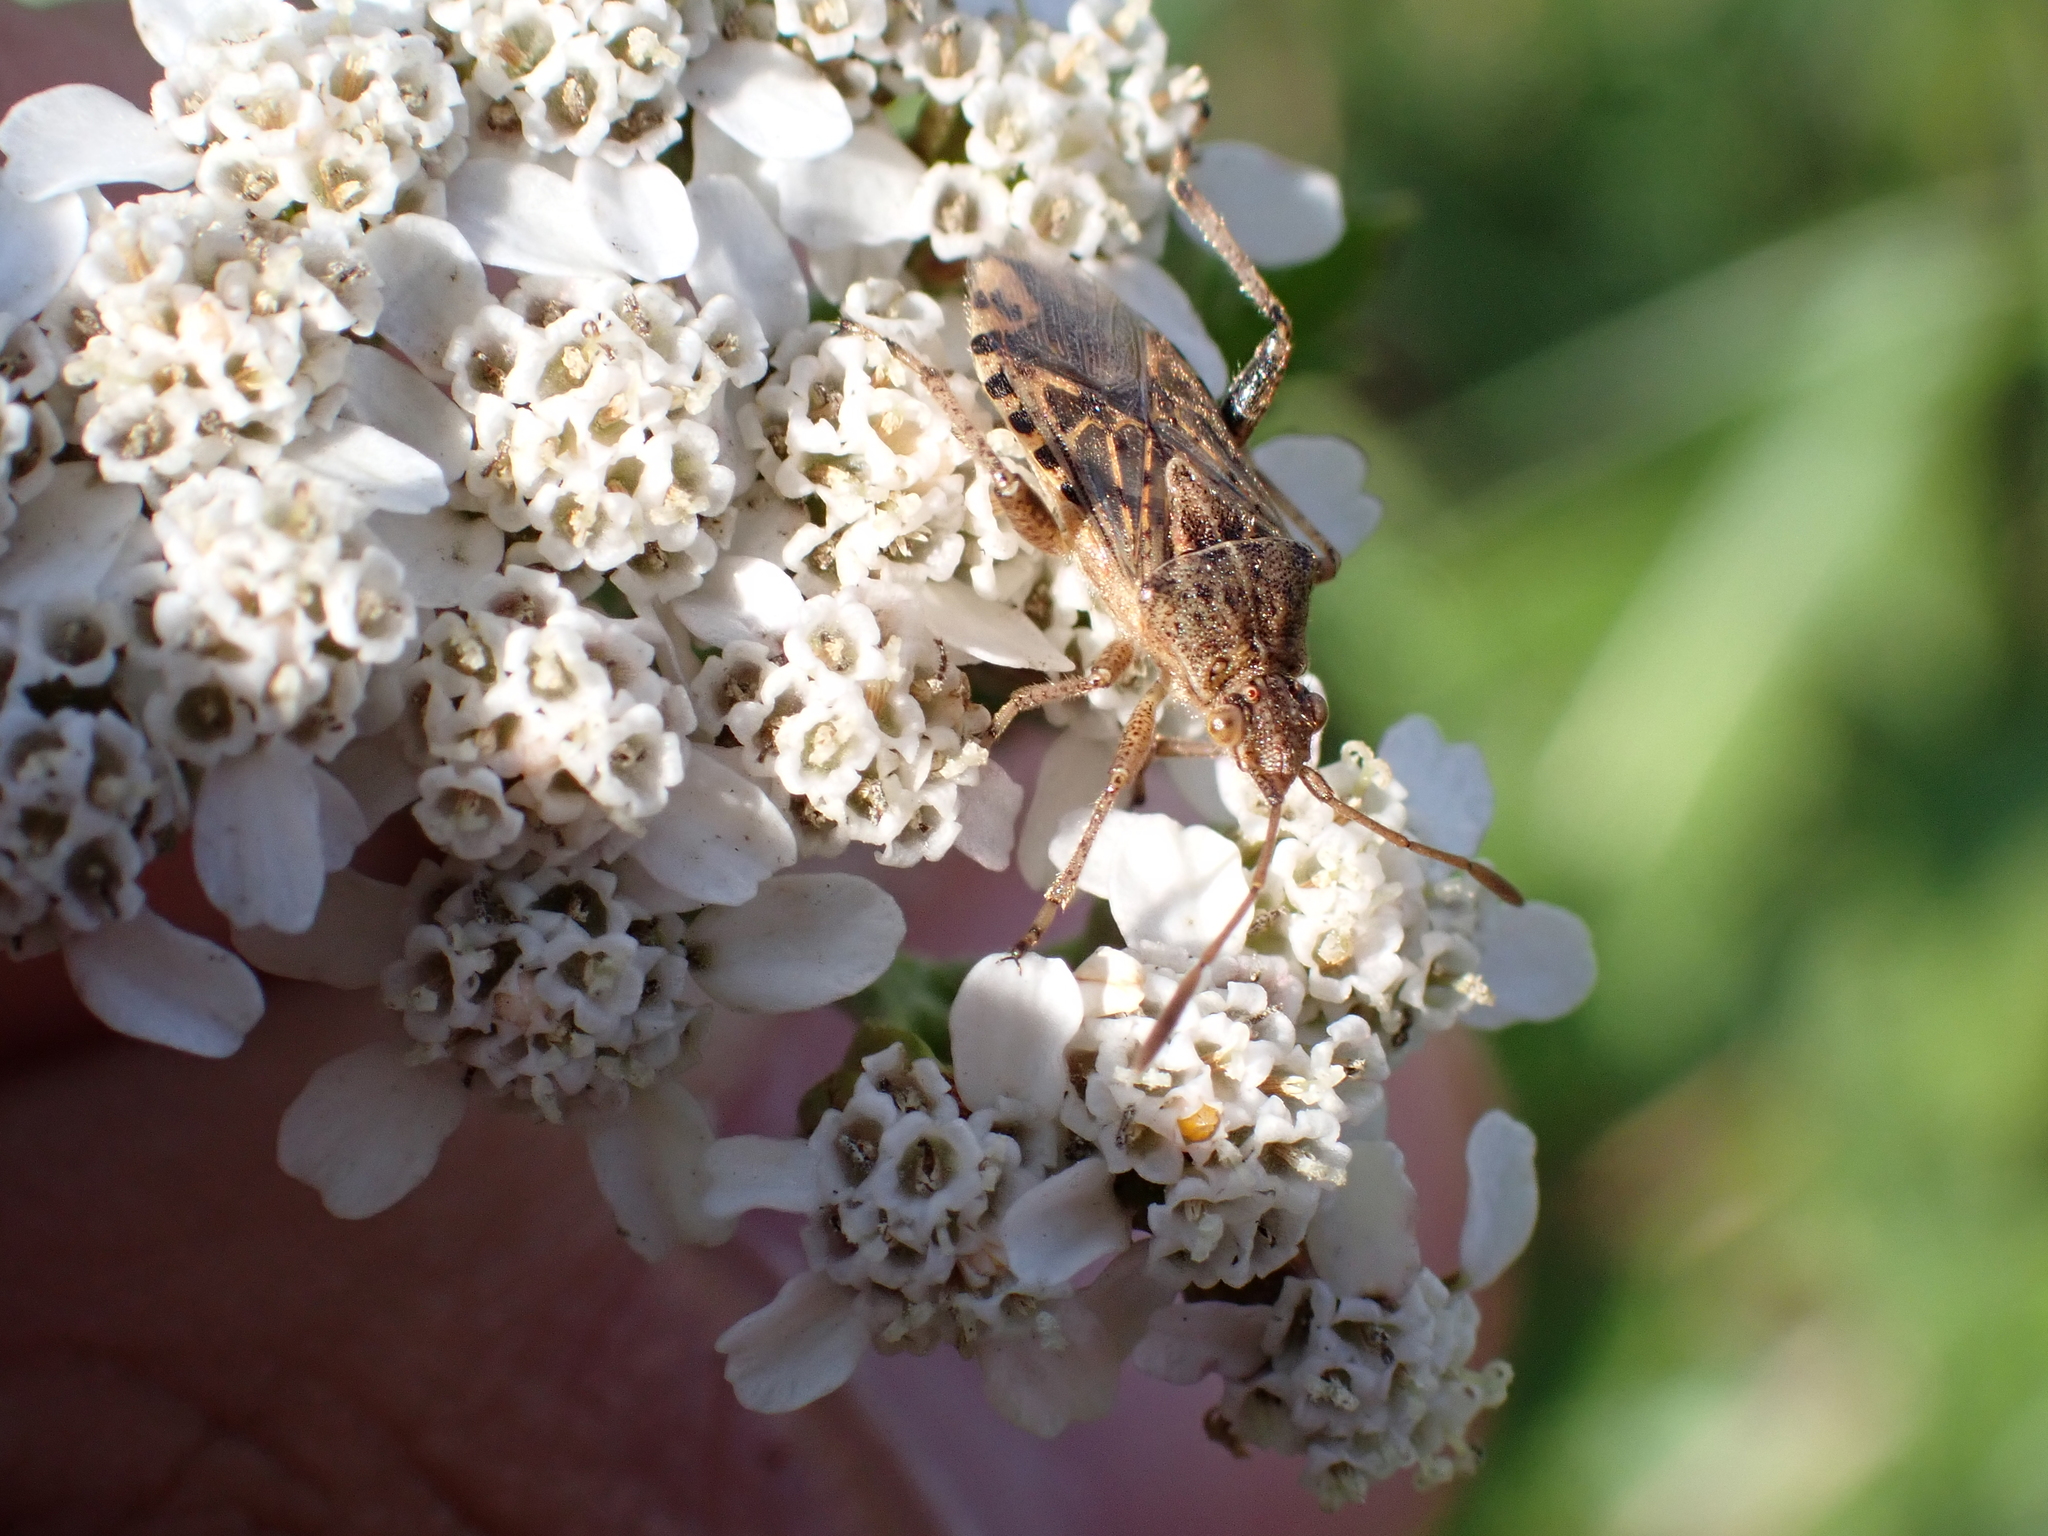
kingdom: Animalia
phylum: Arthropoda
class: Insecta
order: Hemiptera
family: Rhopalidae
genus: Stictopleurus
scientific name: Stictopleurus abutilon
